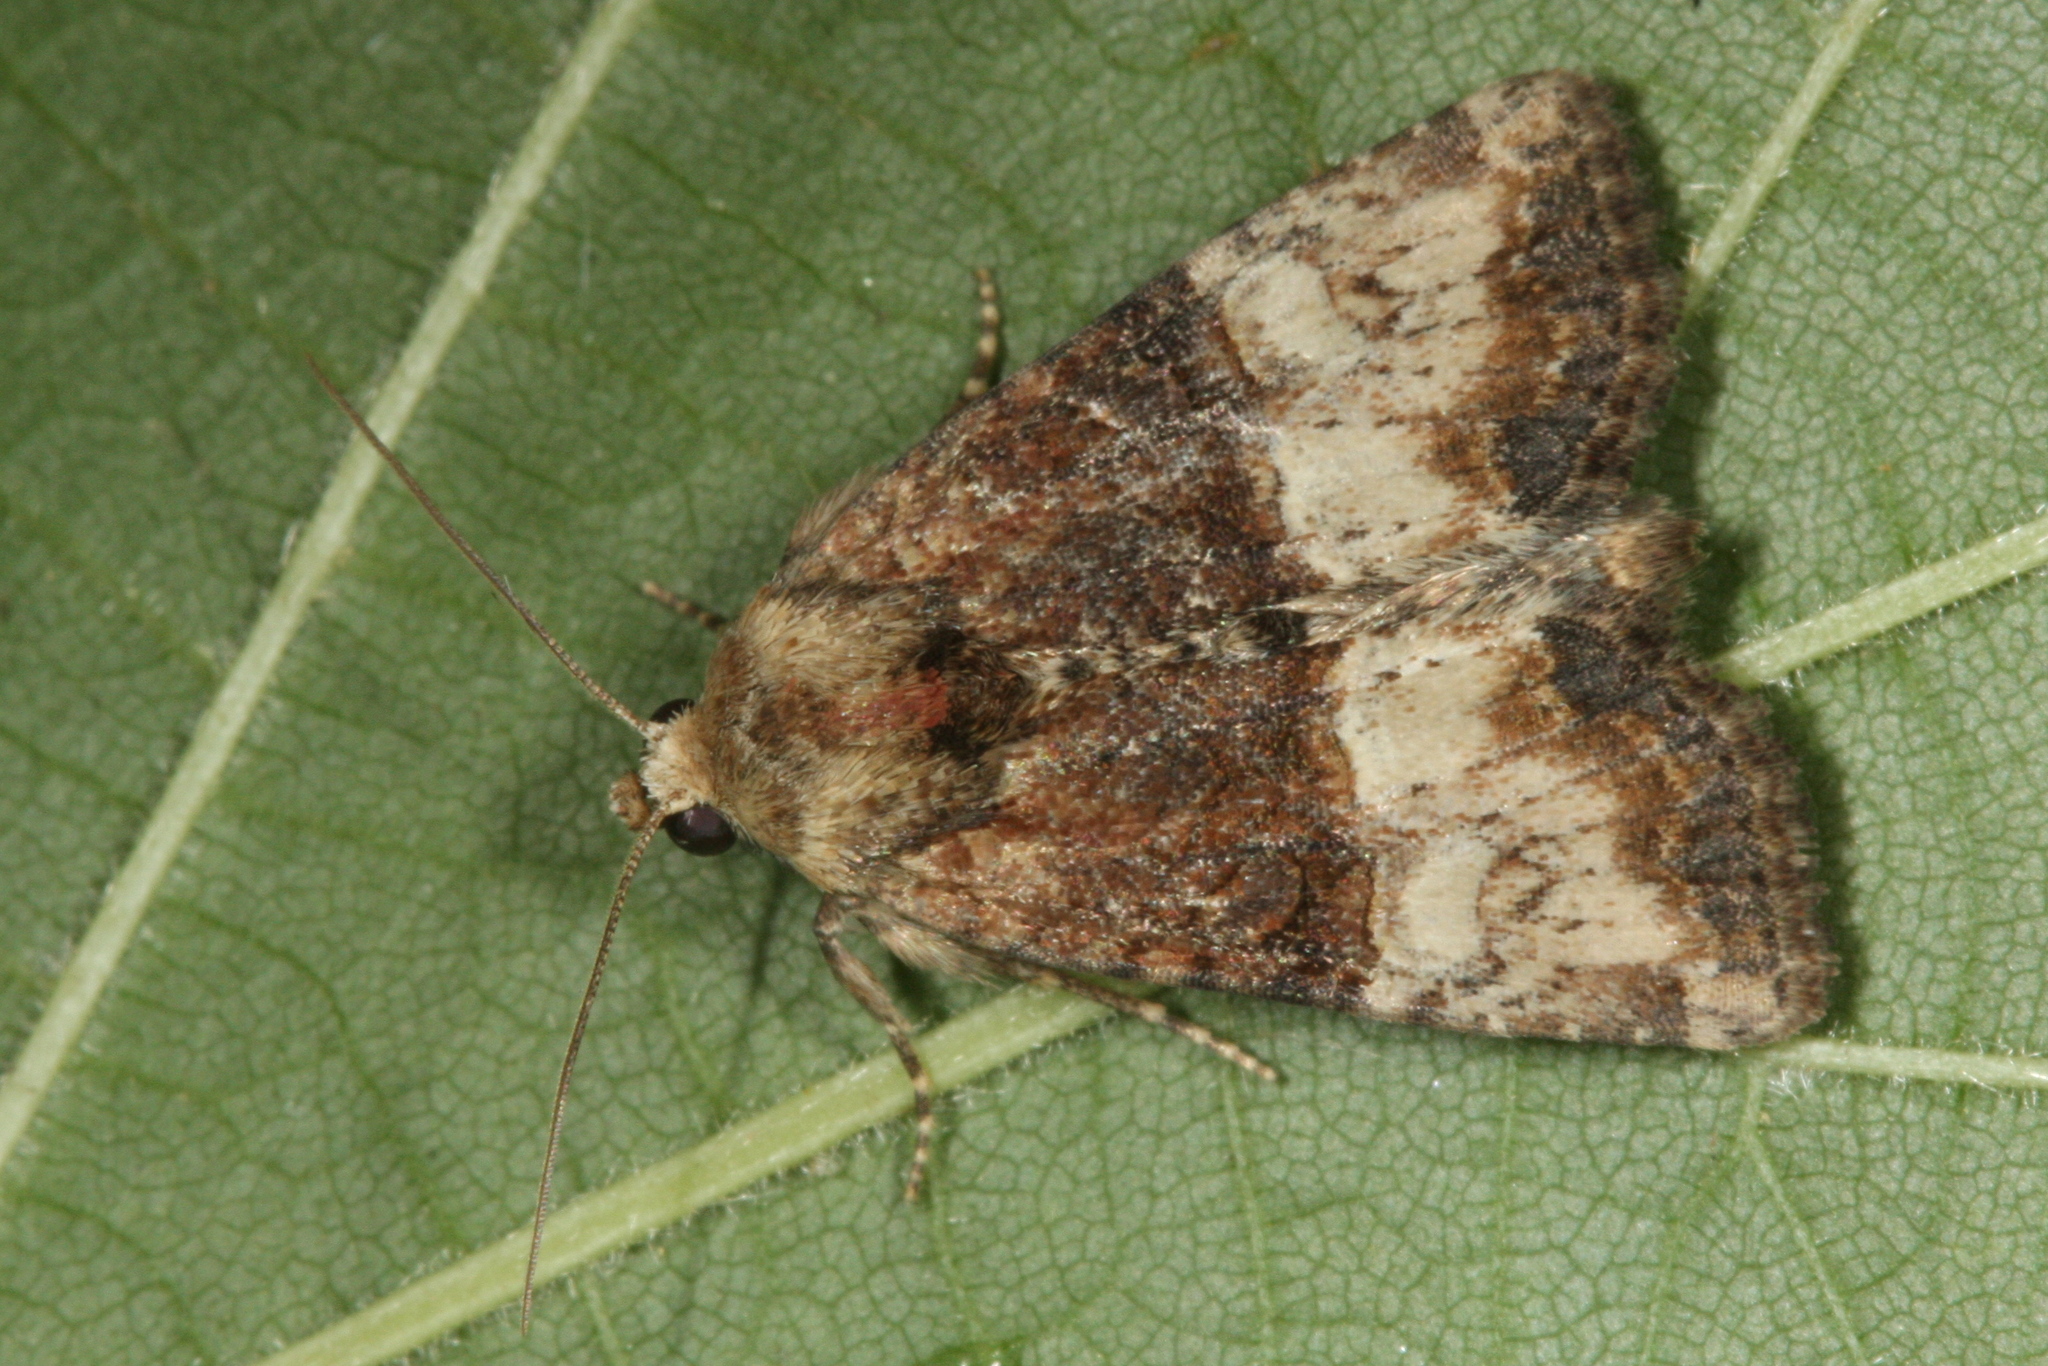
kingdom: Animalia
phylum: Arthropoda
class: Insecta
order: Lepidoptera
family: Noctuidae
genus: Mesoligia
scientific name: Mesoligia furuncula
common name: Cloaked minor
